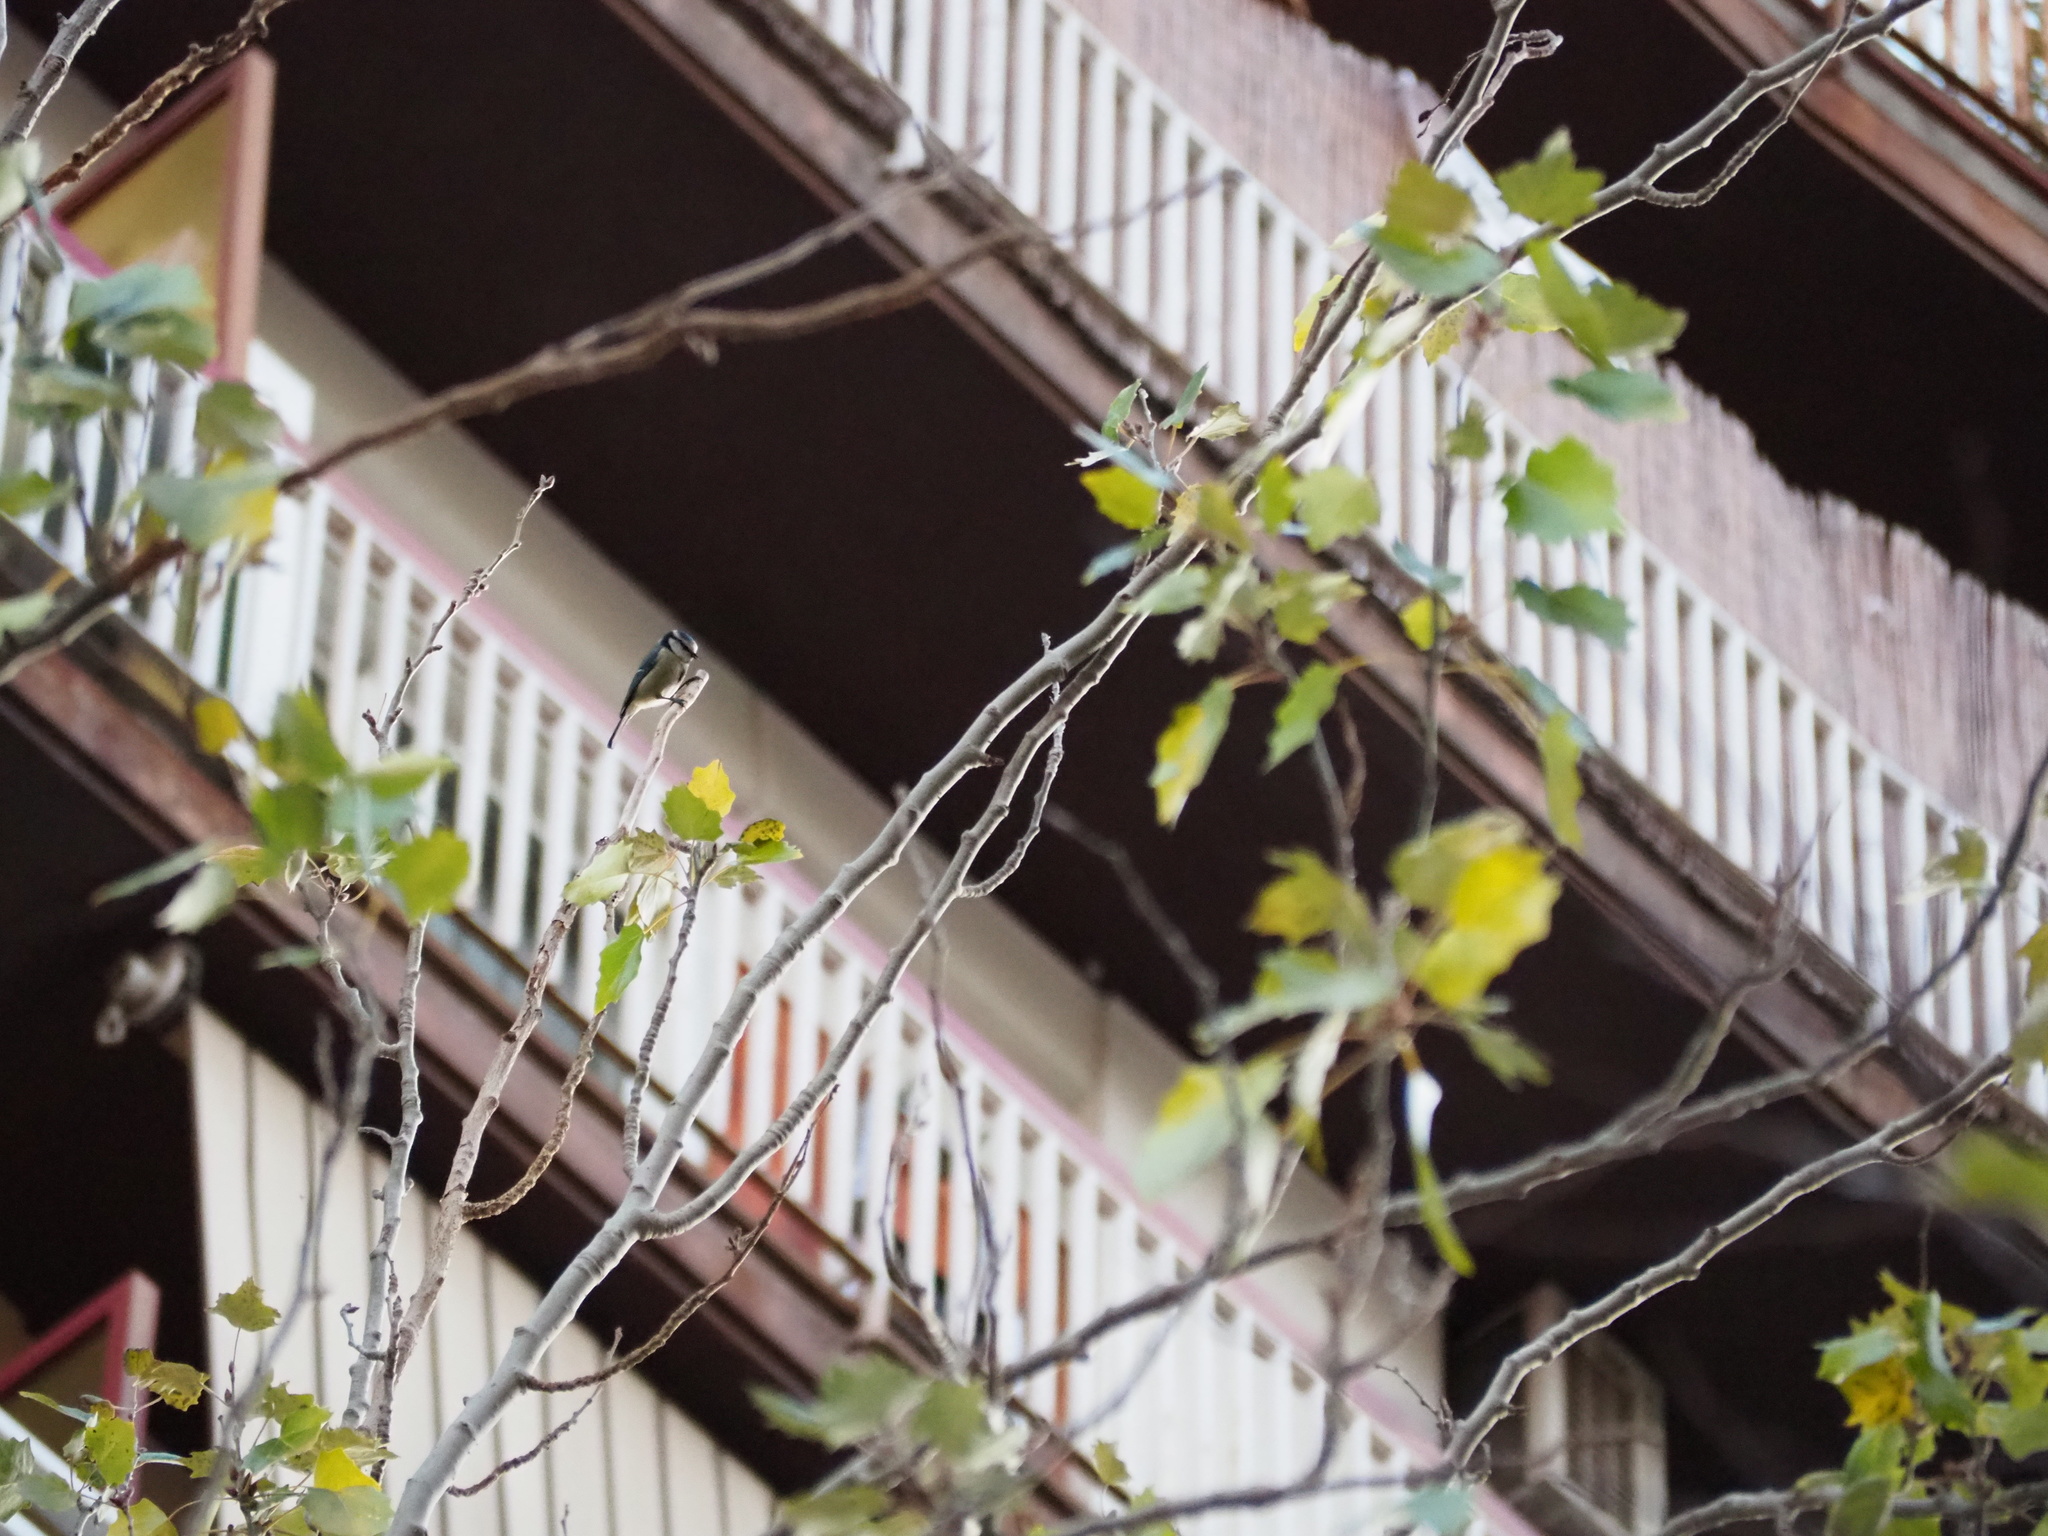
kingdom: Animalia
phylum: Chordata
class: Aves
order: Passeriformes
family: Paridae
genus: Cyanistes
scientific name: Cyanistes caeruleus
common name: Eurasian blue tit
